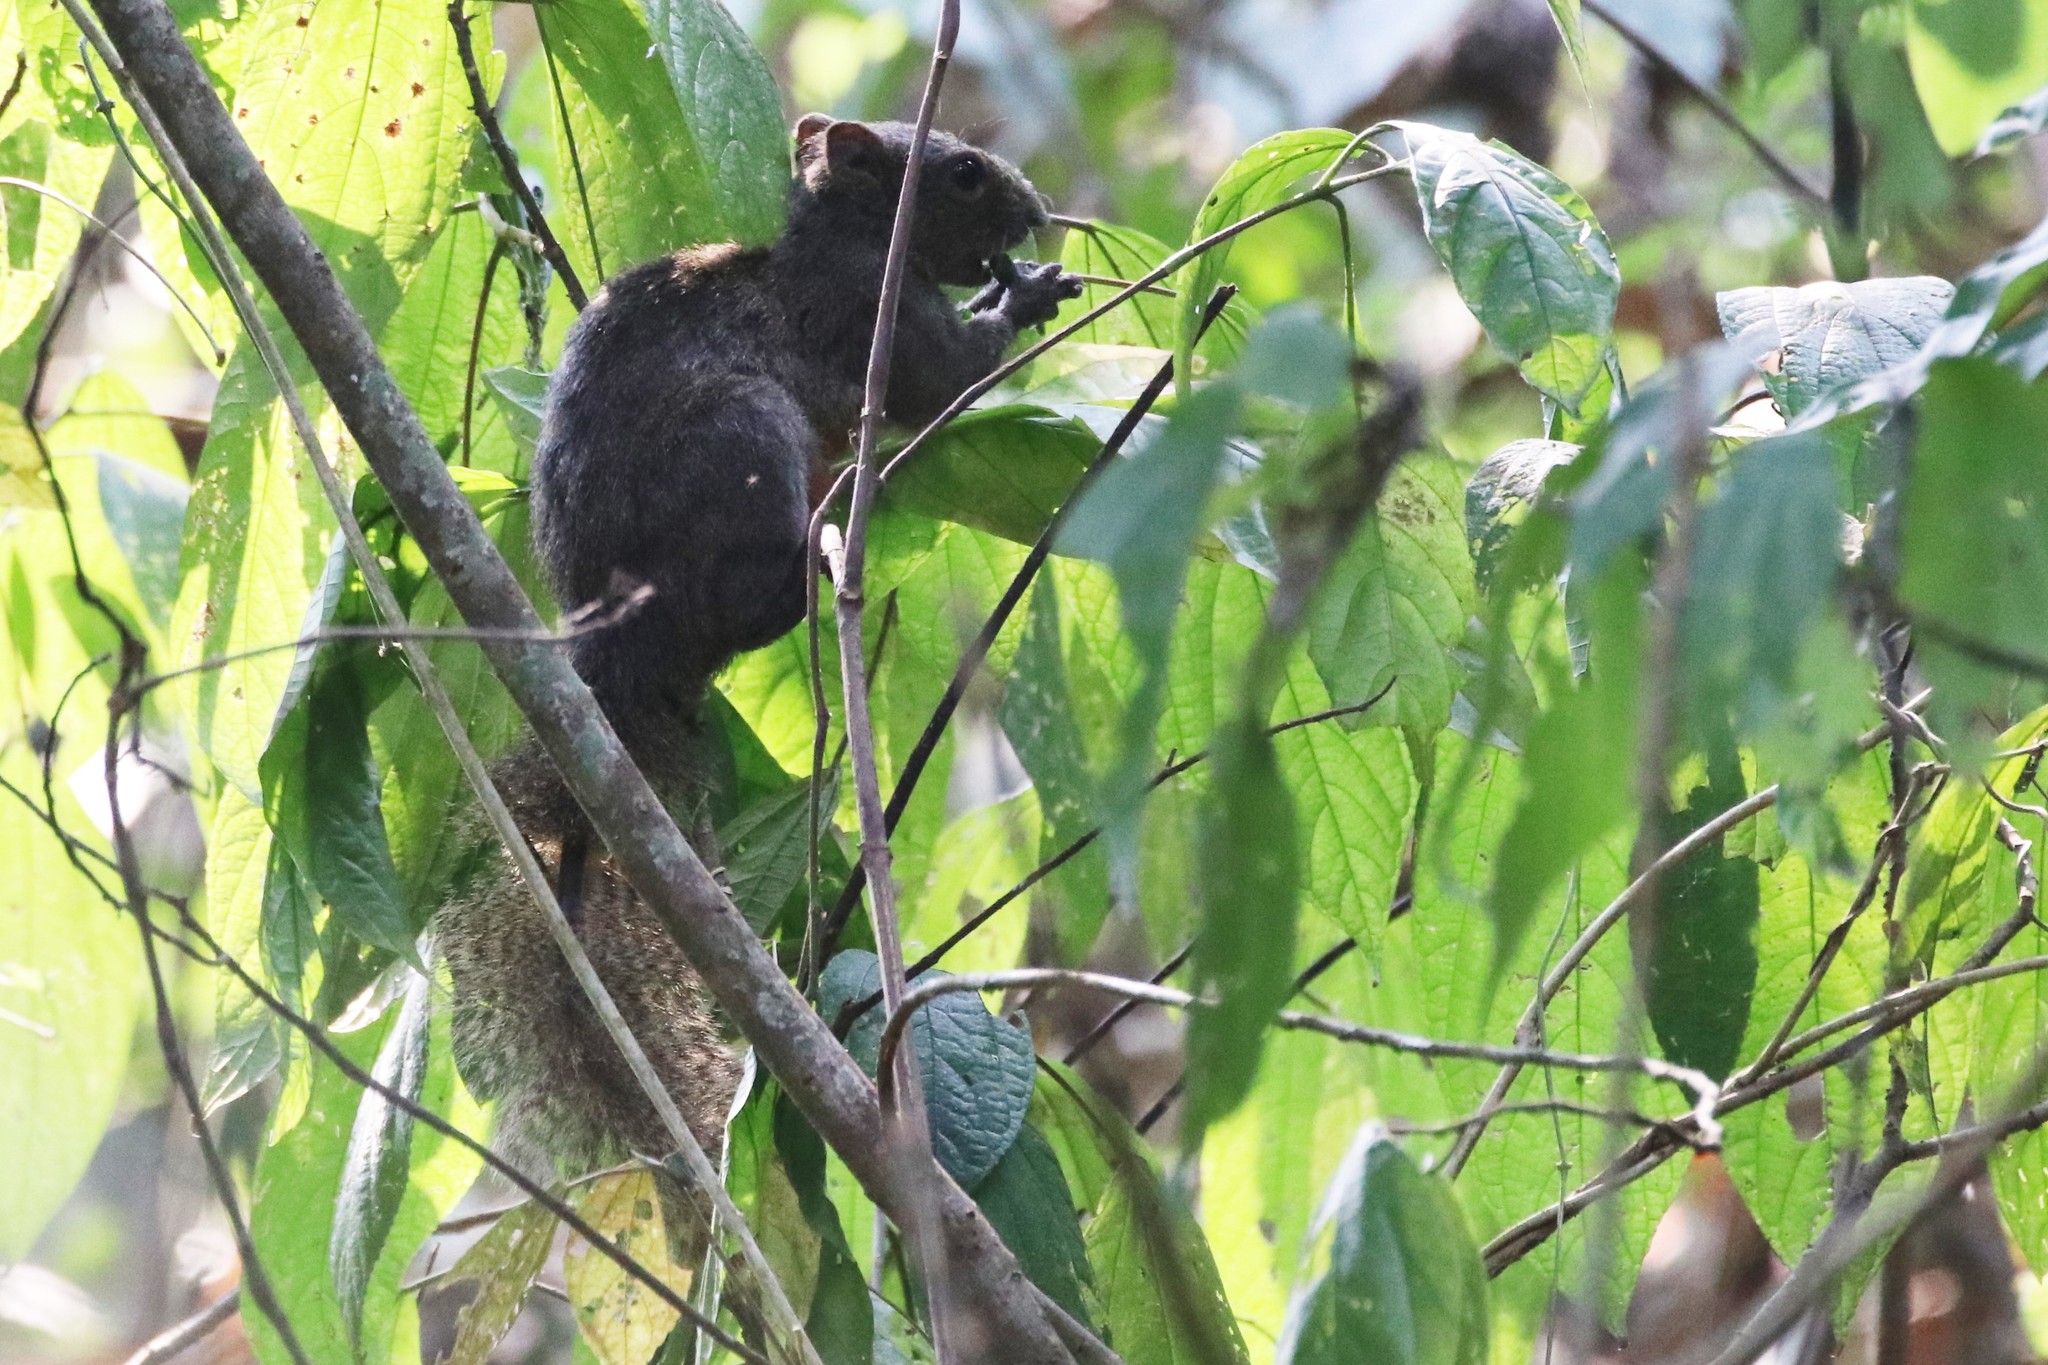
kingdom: Animalia
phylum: Chordata
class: Mammalia
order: Rodentia
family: Sciuridae
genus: Callosciurus
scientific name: Callosciurus erythraeus
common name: Pallas's squirrel
